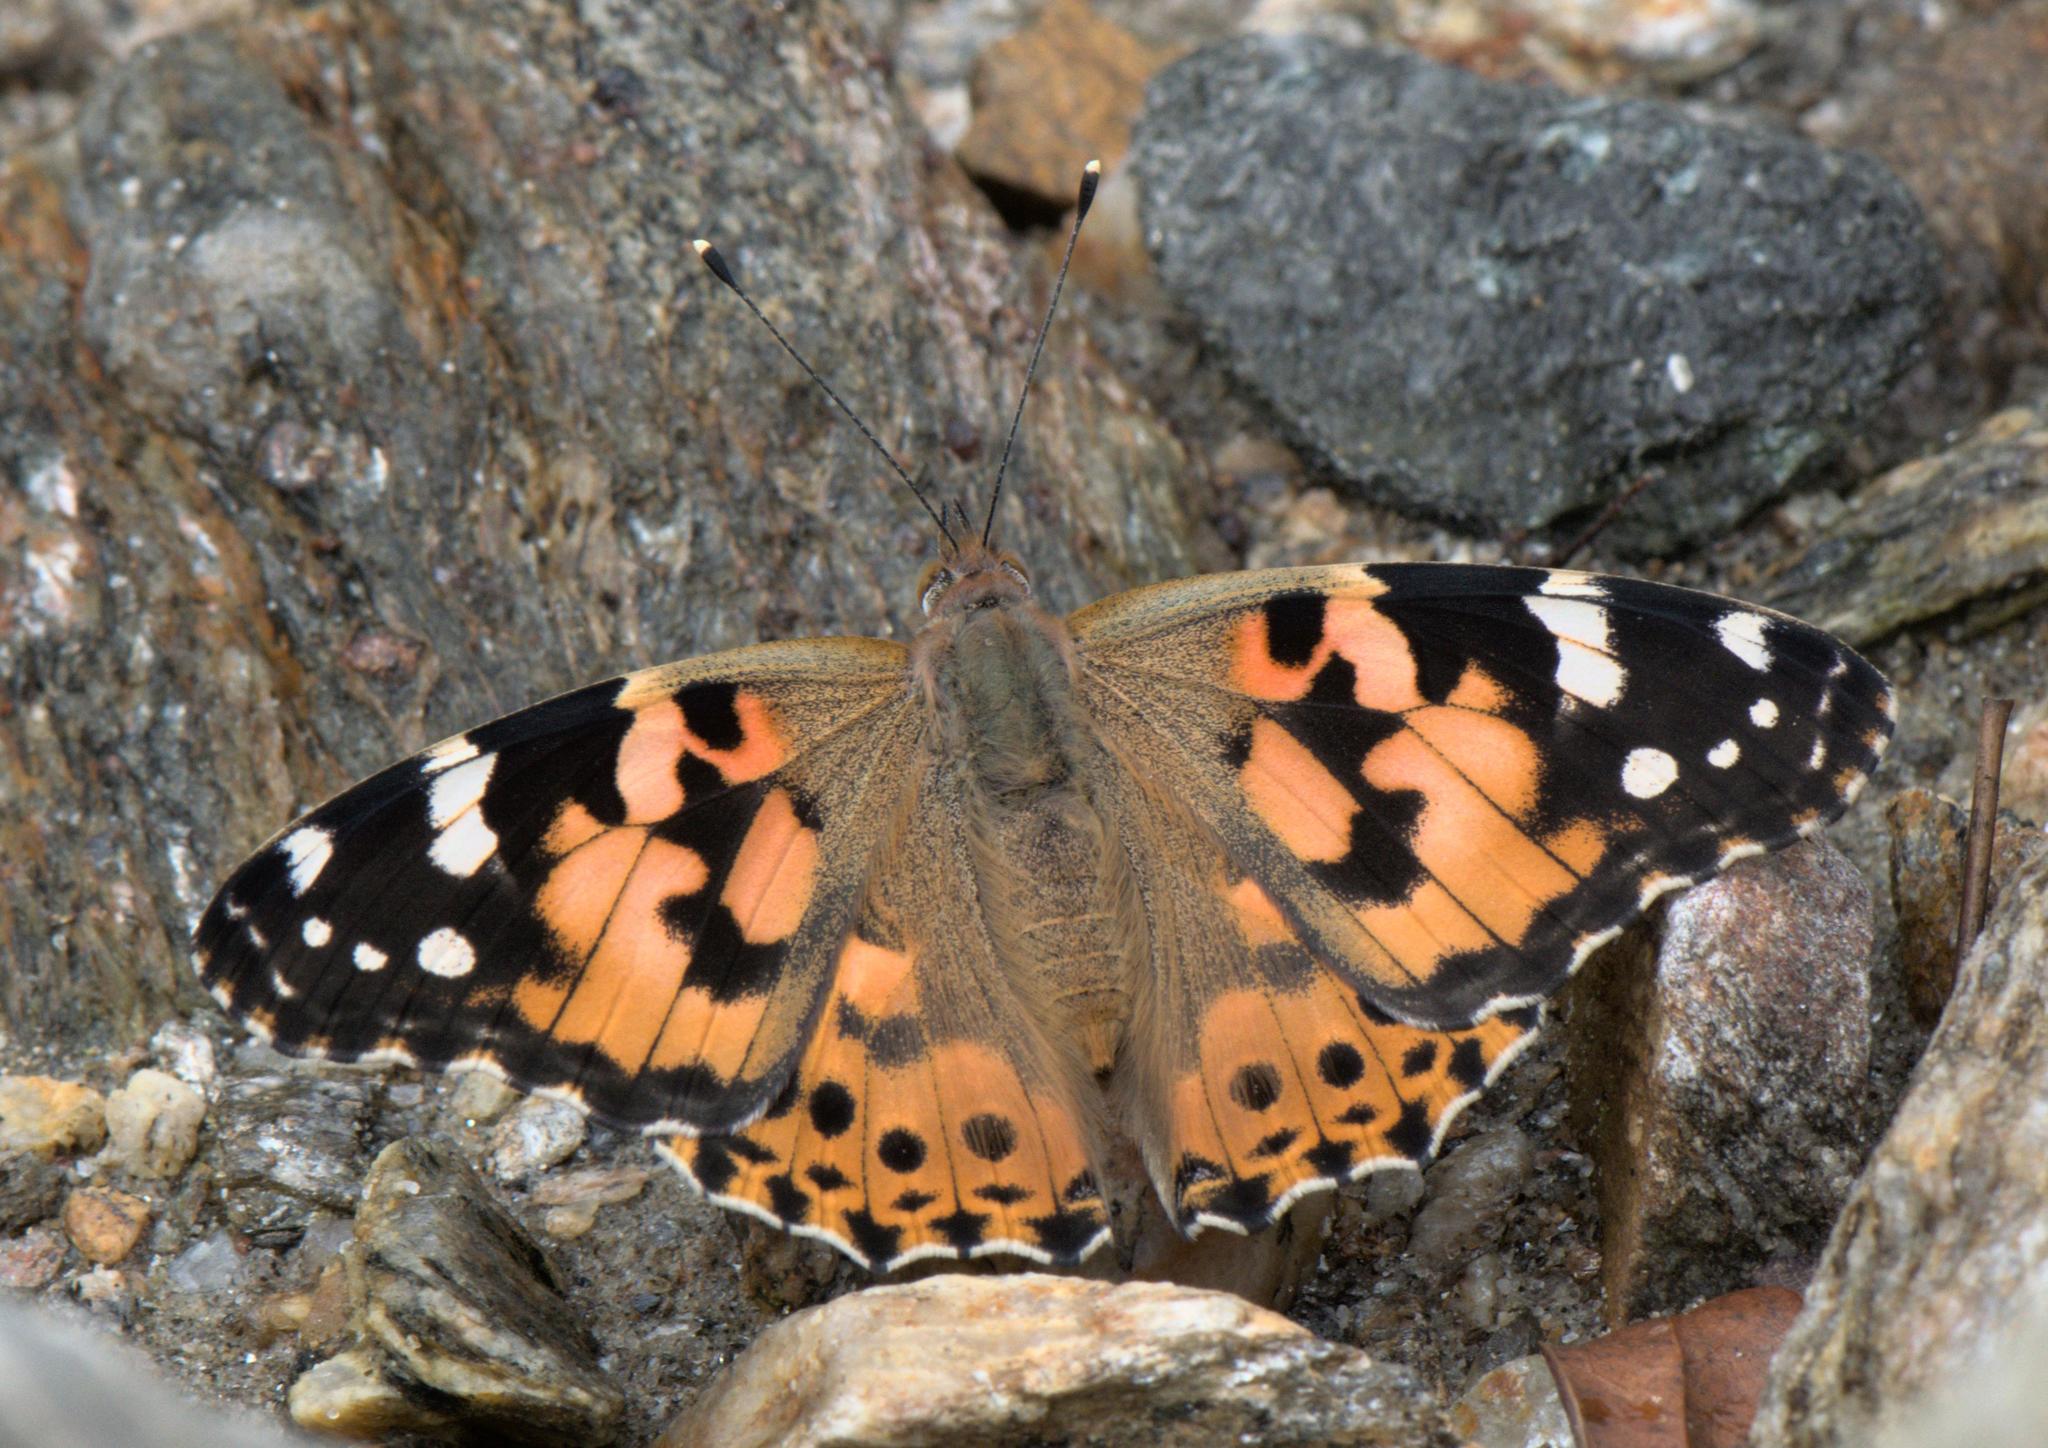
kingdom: Animalia
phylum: Arthropoda
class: Insecta
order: Lepidoptera
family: Nymphalidae
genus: Vanessa
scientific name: Vanessa cardui
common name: Painted lady
